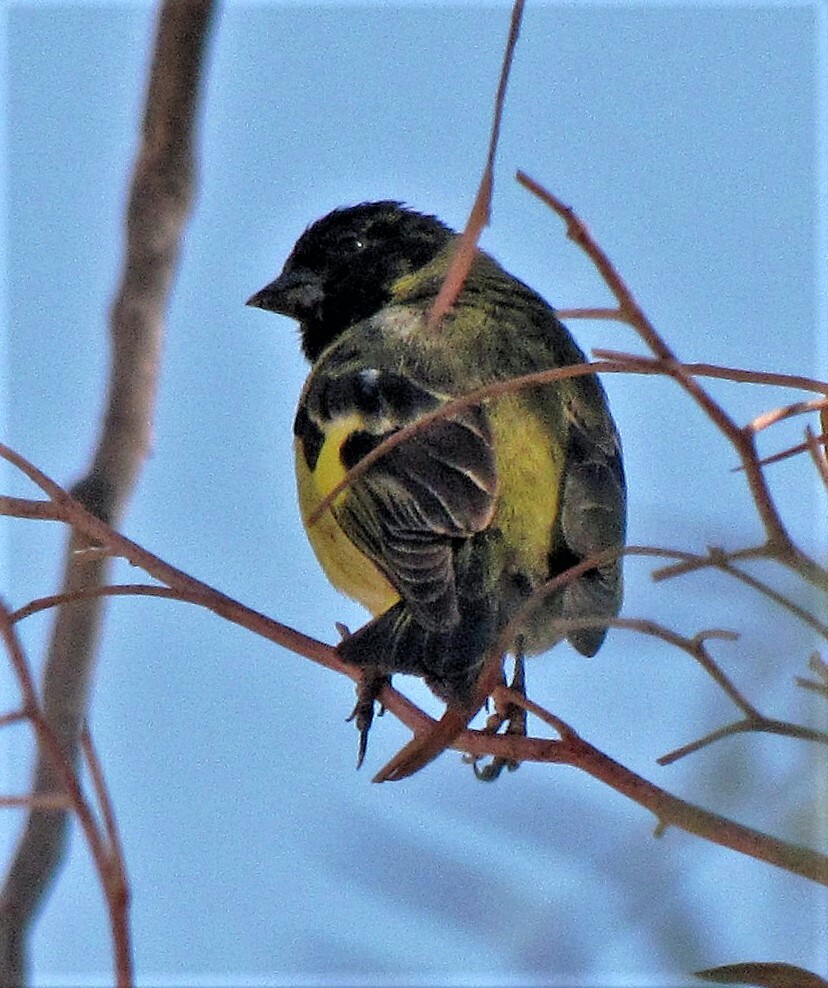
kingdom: Animalia
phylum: Chordata
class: Aves
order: Passeriformes
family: Fringillidae
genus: Spinus
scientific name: Spinus magellanicus
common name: Hooded siskin
